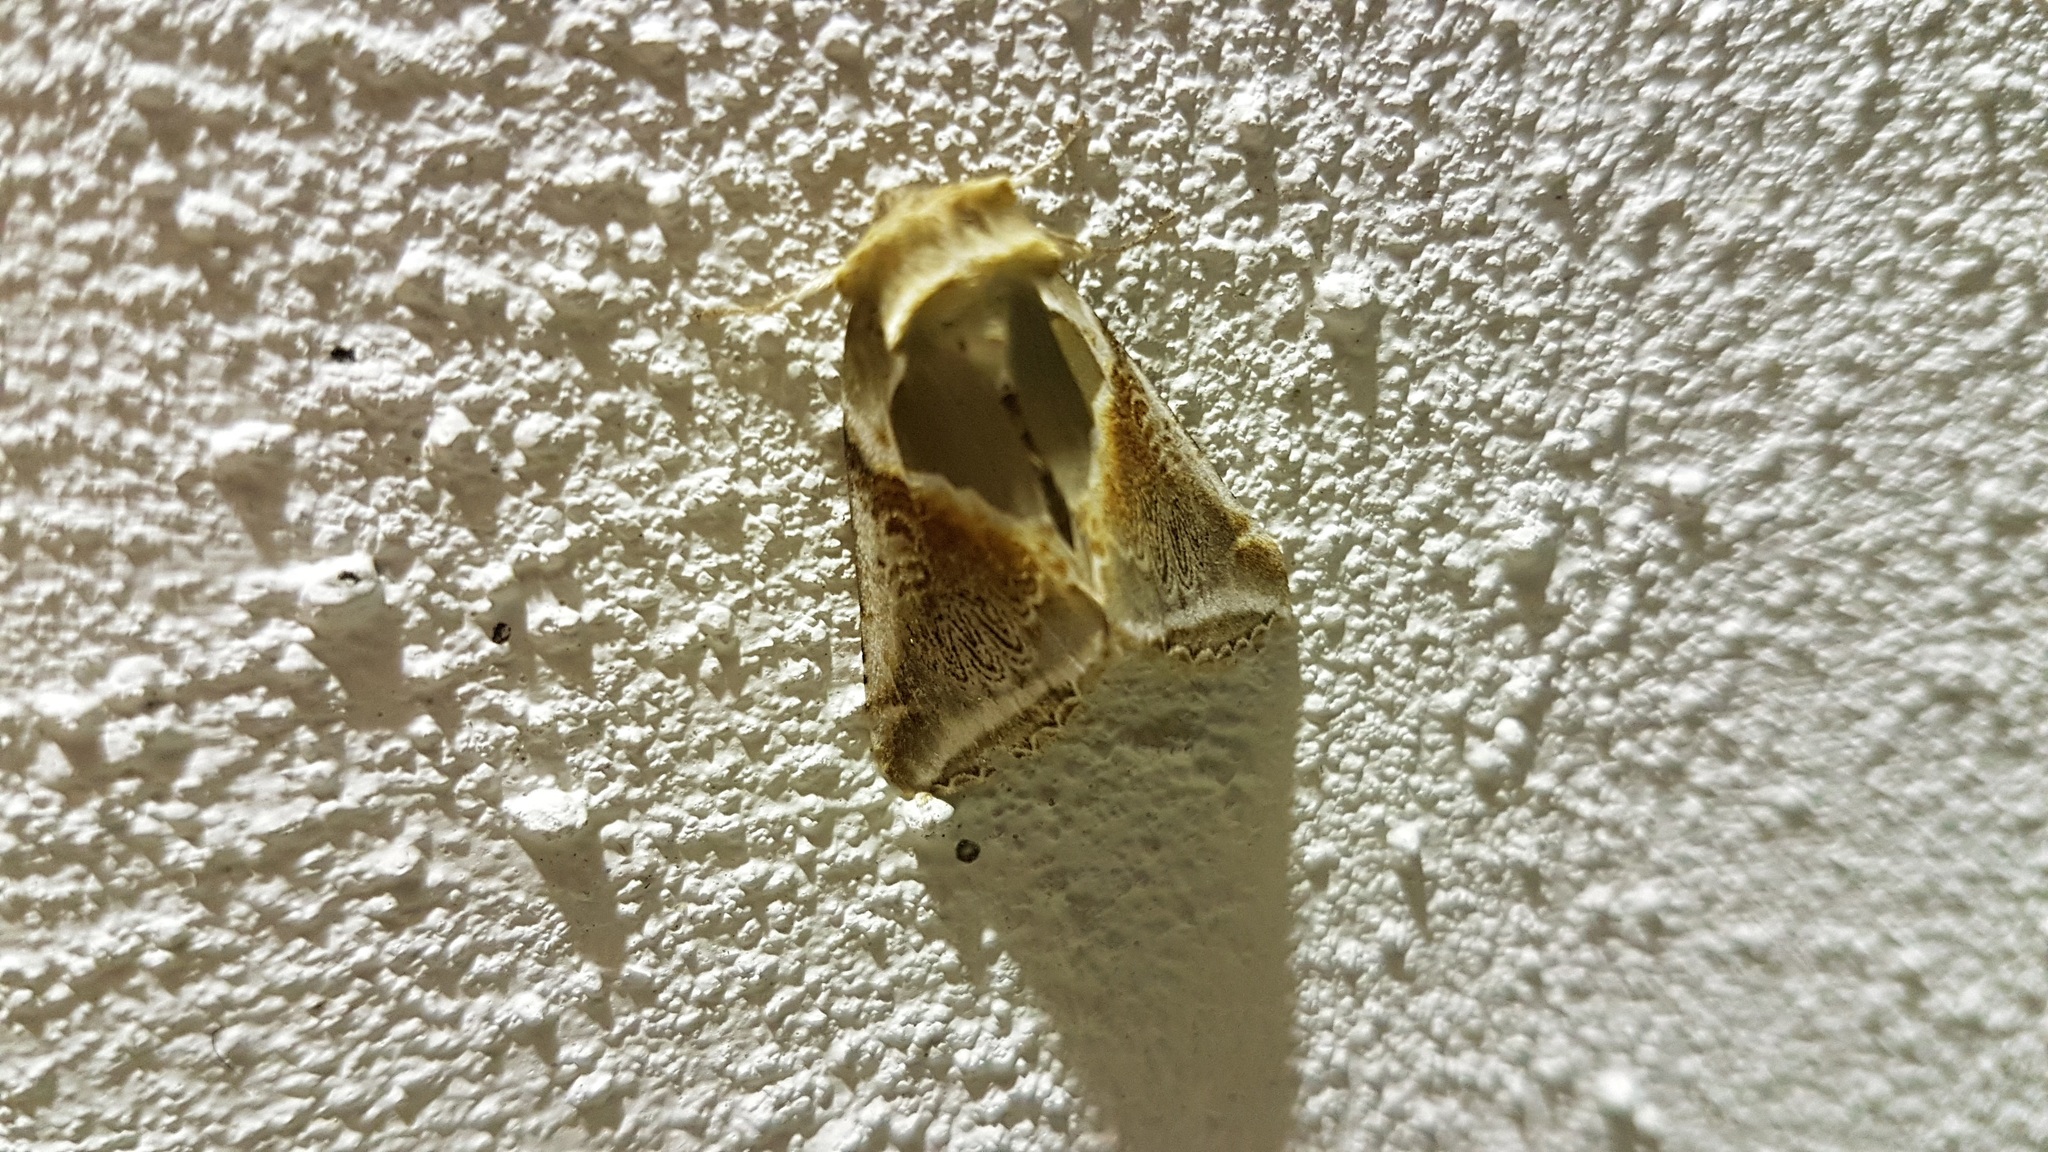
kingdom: Animalia
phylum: Arthropoda
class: Insecta
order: Lepidoptera
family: Drepanidae
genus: Habrosyne
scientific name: Habrosyne pyritoides
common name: Buff arches
